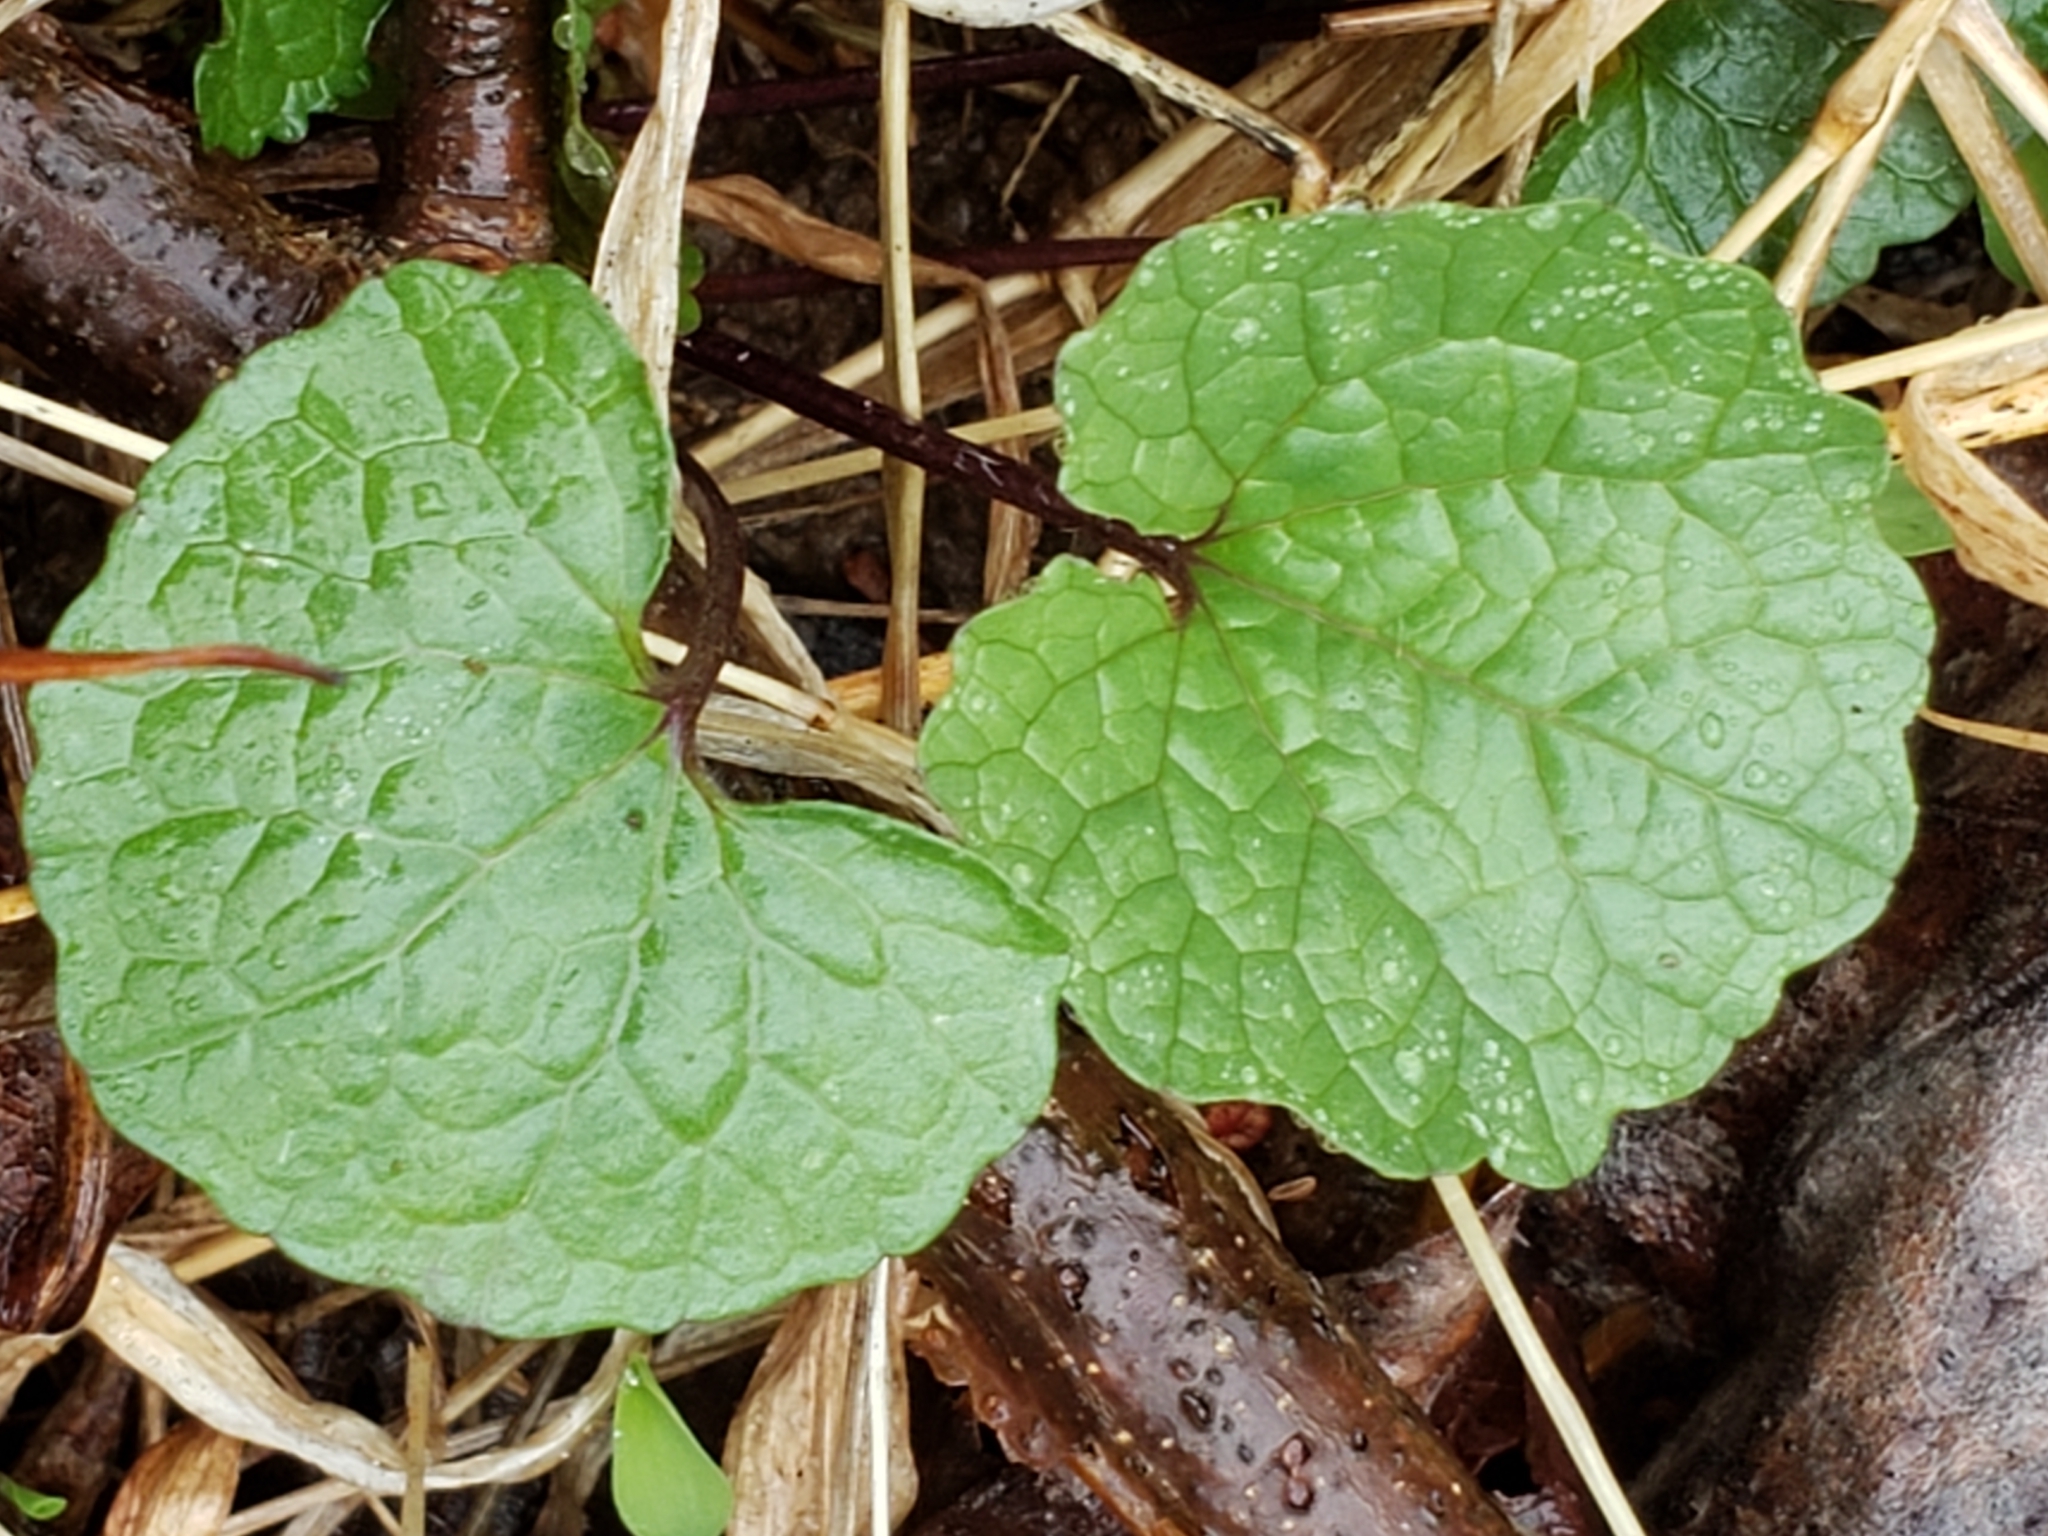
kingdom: Plantae
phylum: Tracheophyta
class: Magnoliopsida
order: Brassicales
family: Brassicaceae
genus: Alliaria
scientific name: Alliaria petiolata
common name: Garlic mustard
